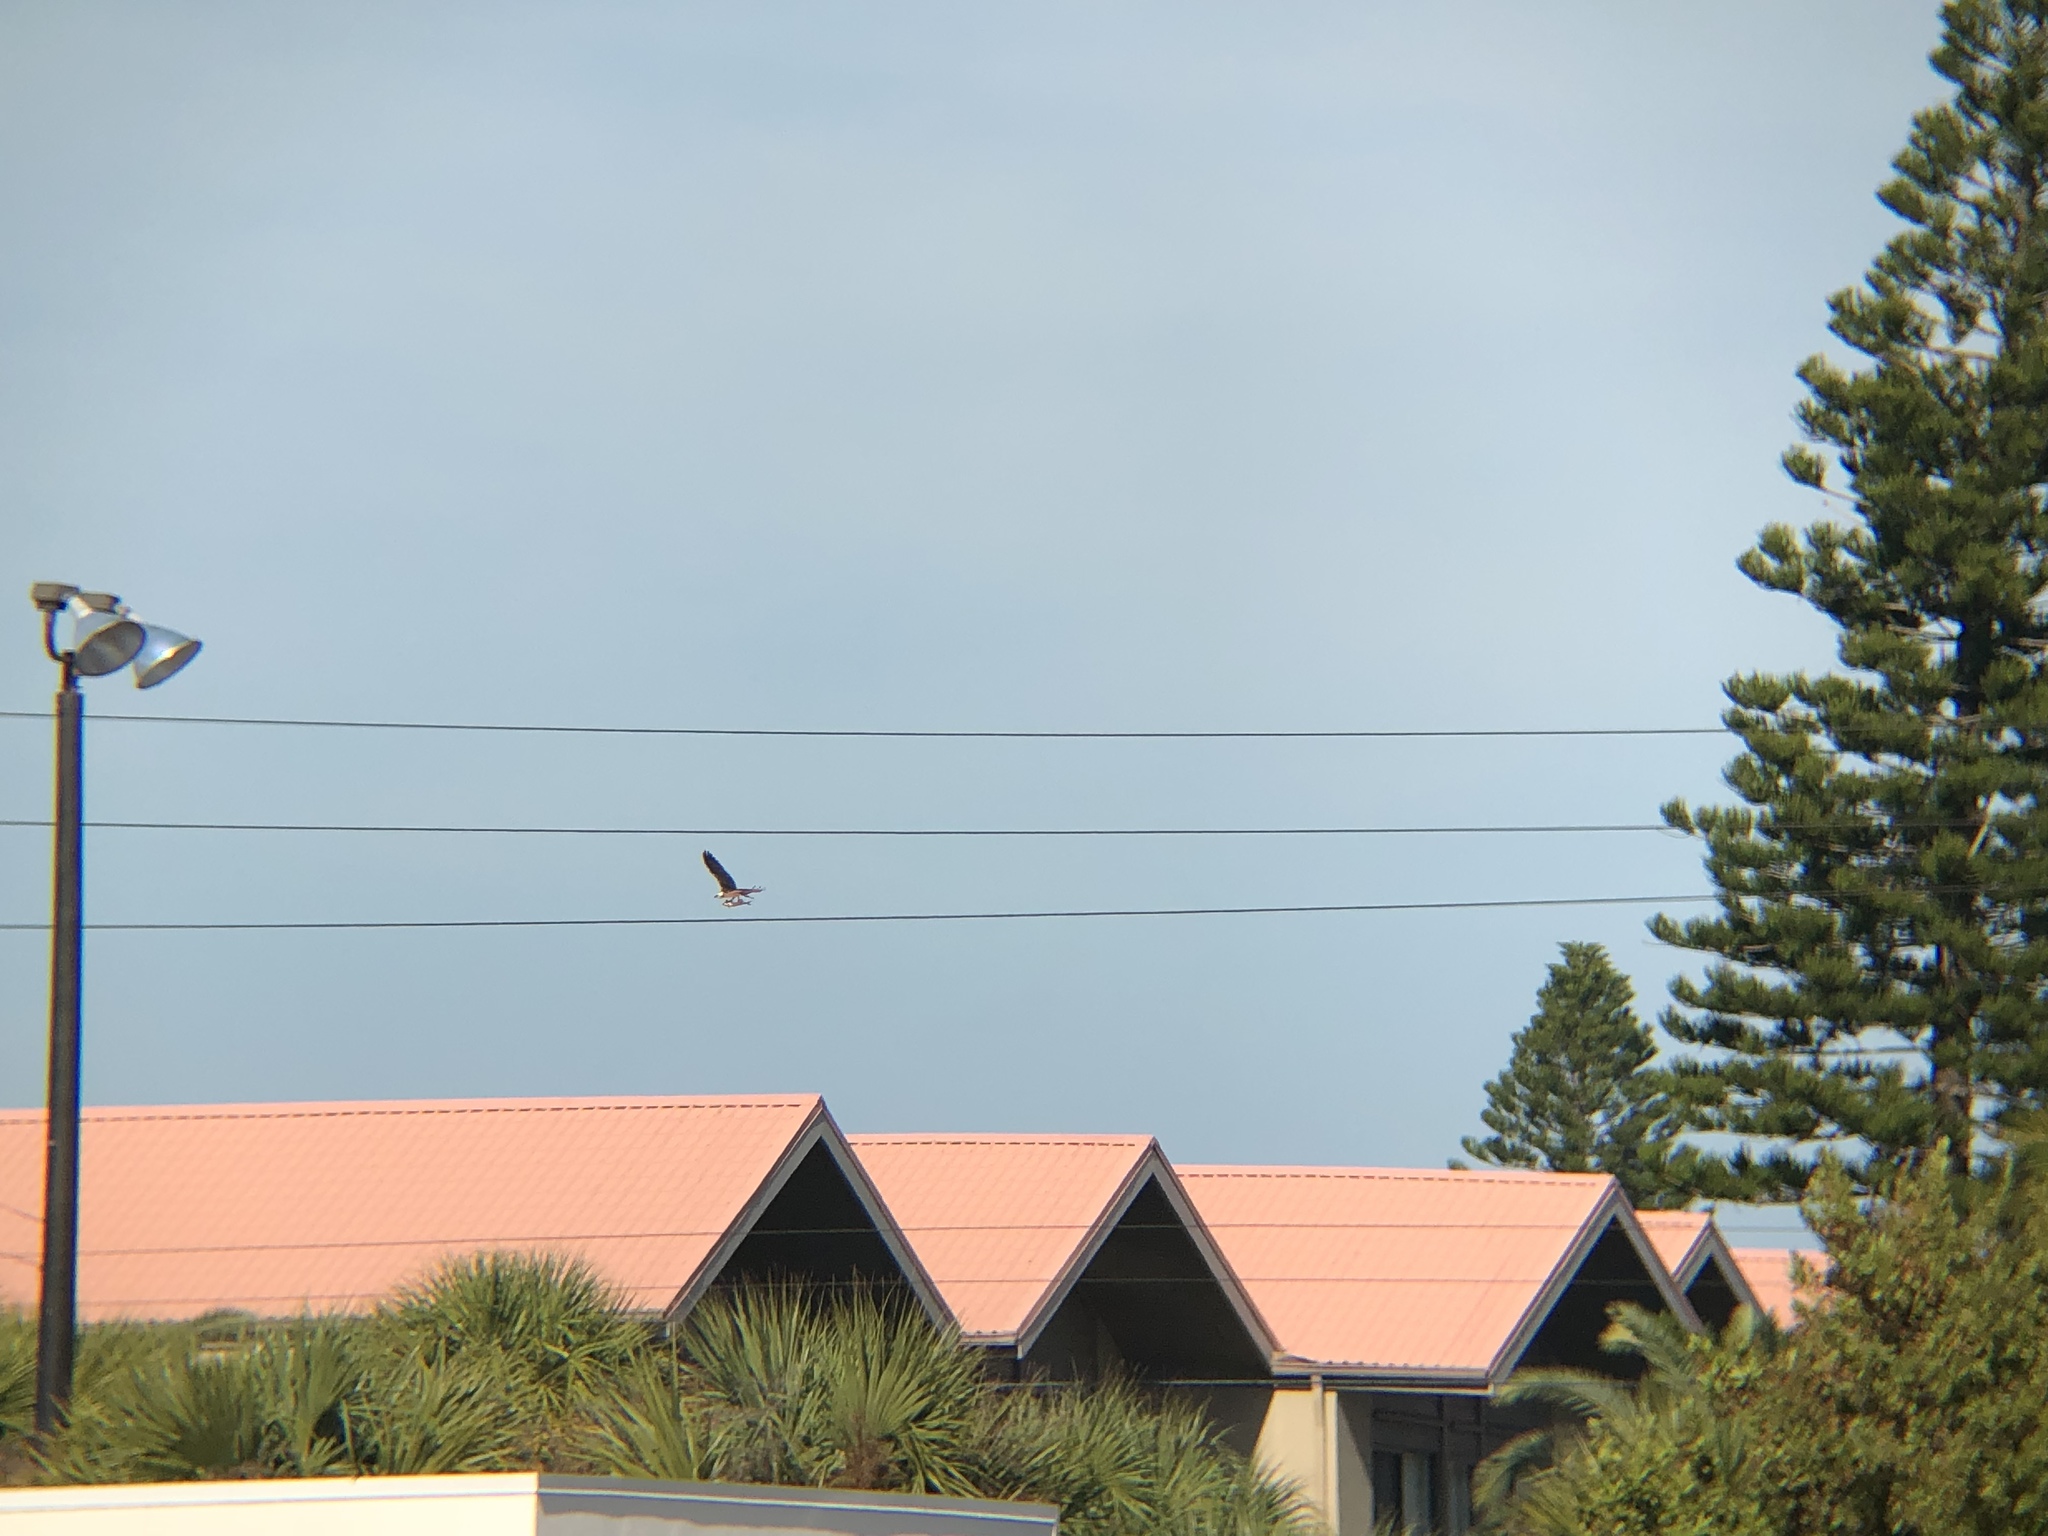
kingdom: Animalia
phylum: Chordata
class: Aves
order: Accipitriformes
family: Pandionidae
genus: Pandion
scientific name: Pandion haliaetus
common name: Osprey
